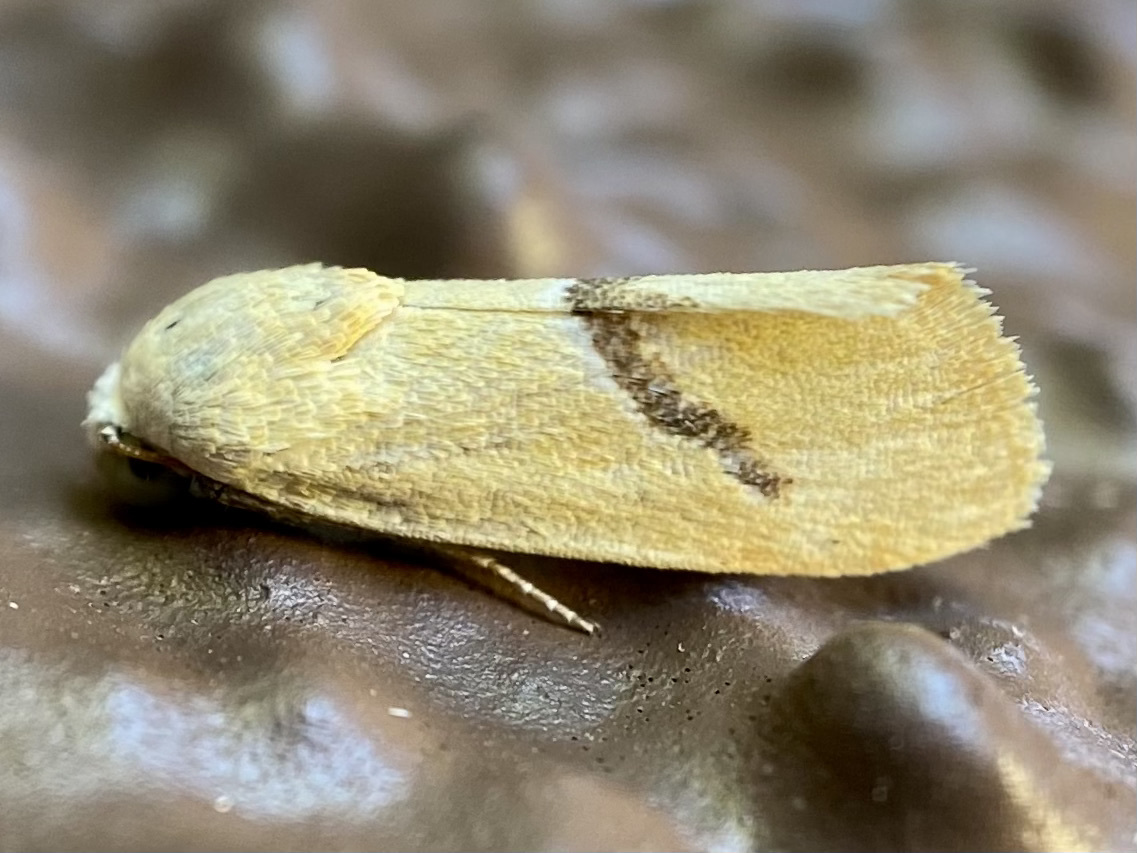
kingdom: Animalia
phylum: Arthropoda
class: Insecta
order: Lepidoptera
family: Noctuidae
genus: Ponometia
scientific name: Ponometia venustula
